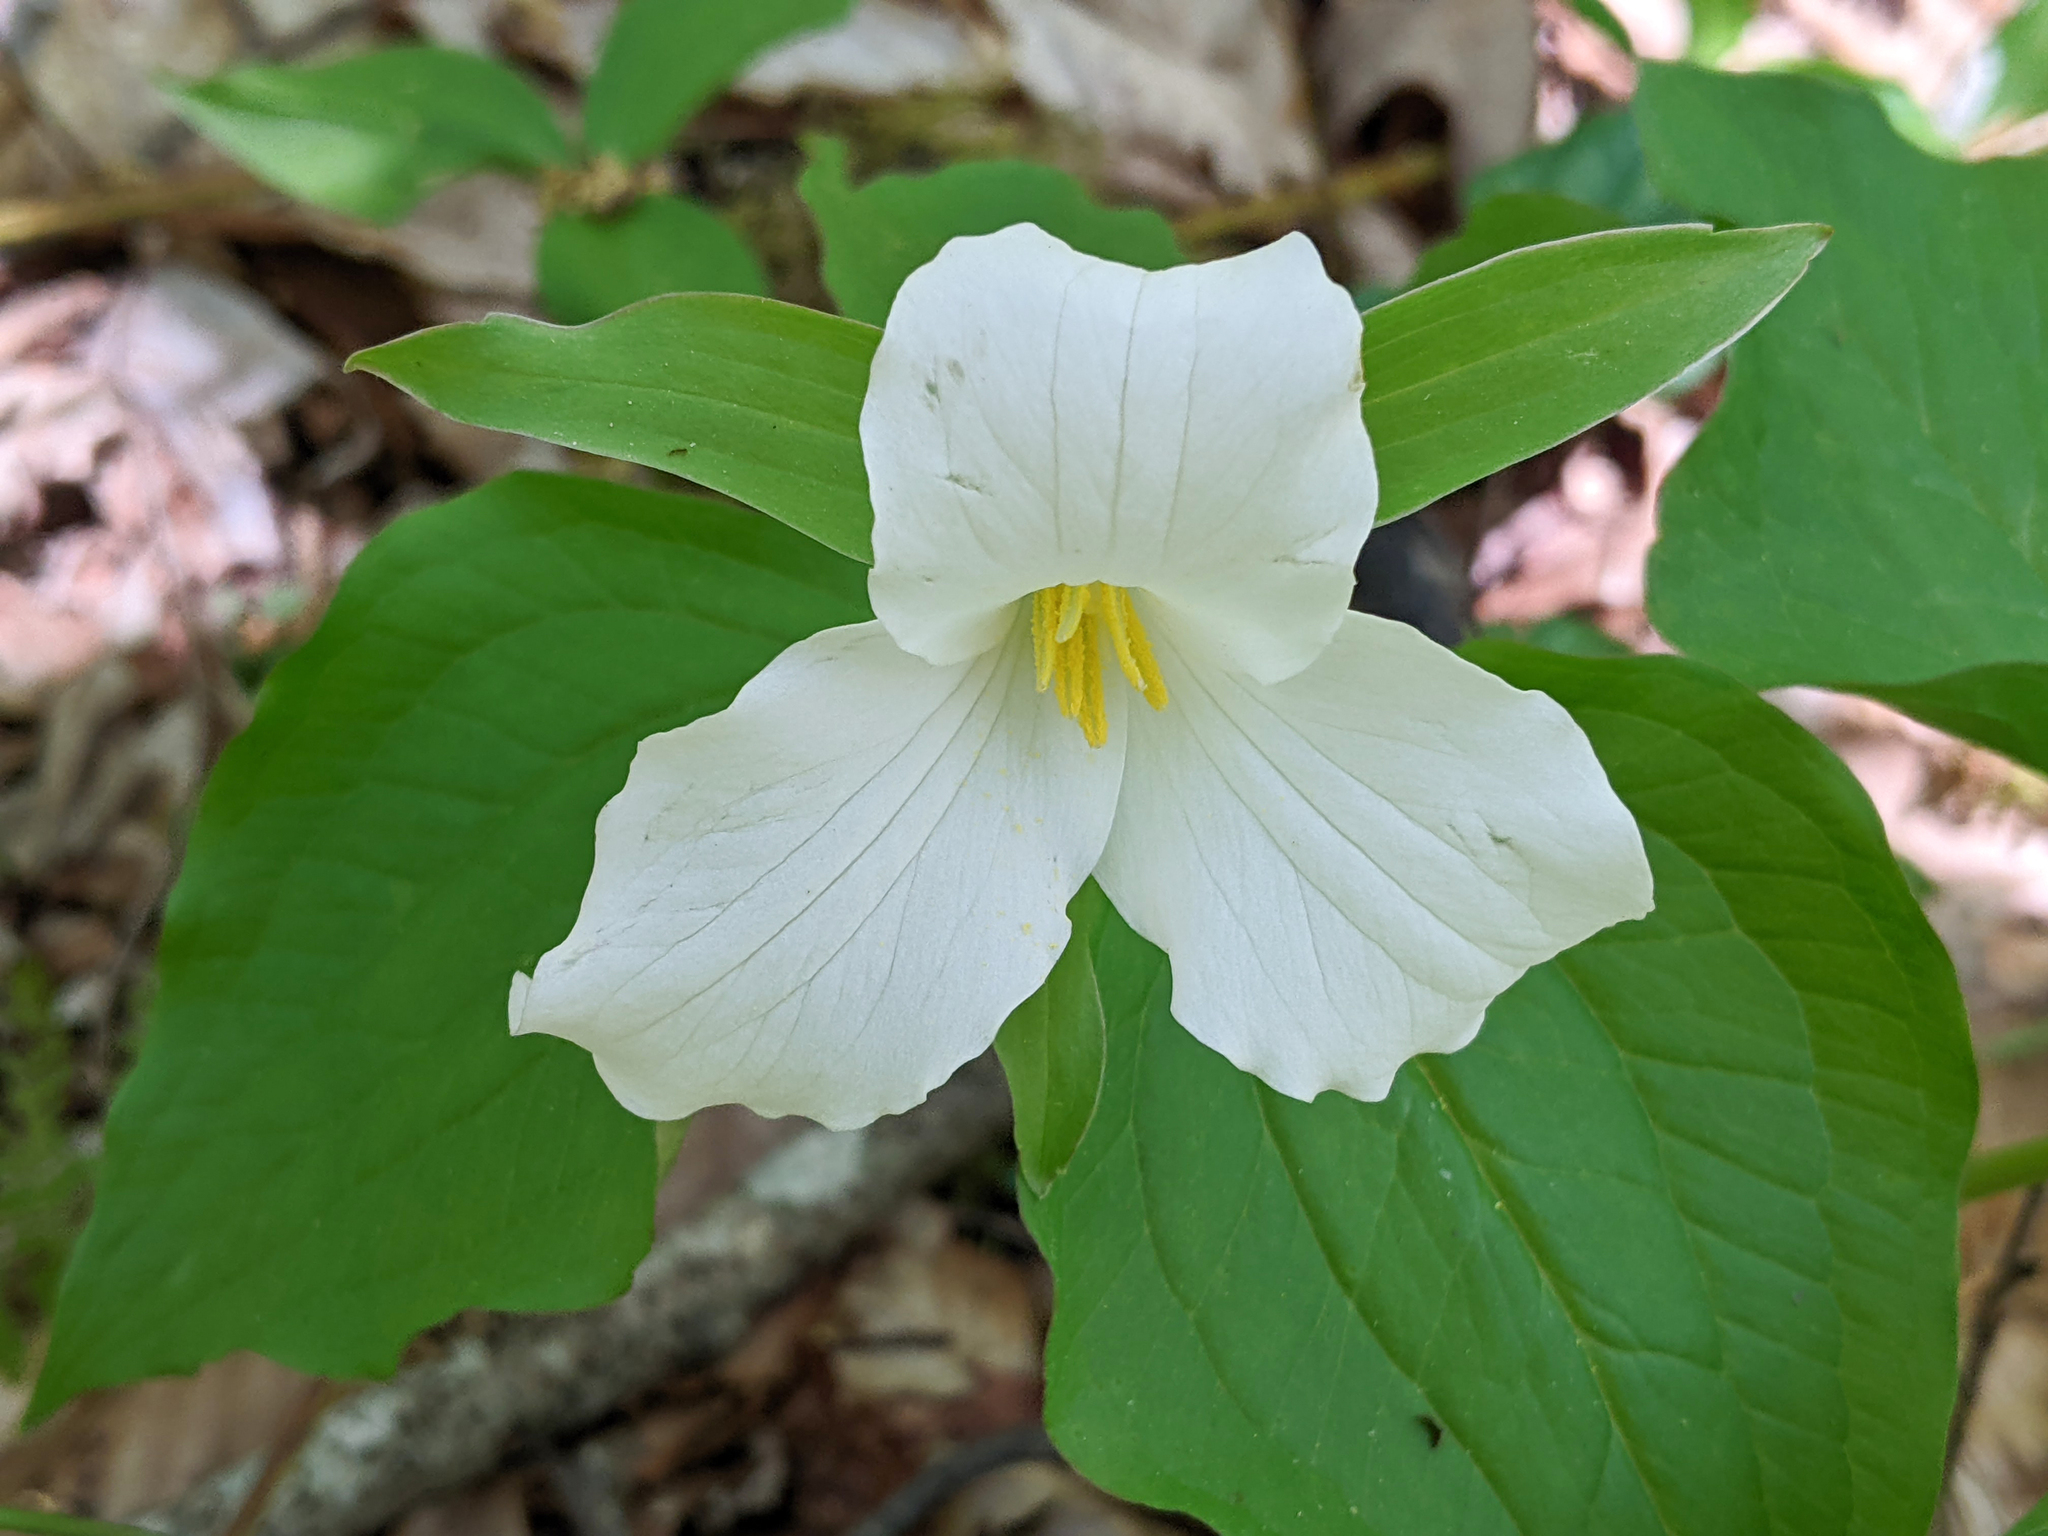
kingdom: Plantae
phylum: Tracheophyta
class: Liliopsida
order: Liliales
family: Melanthiaceae
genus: Trillium
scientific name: Trillium grandiflorum
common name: Great white trillium
